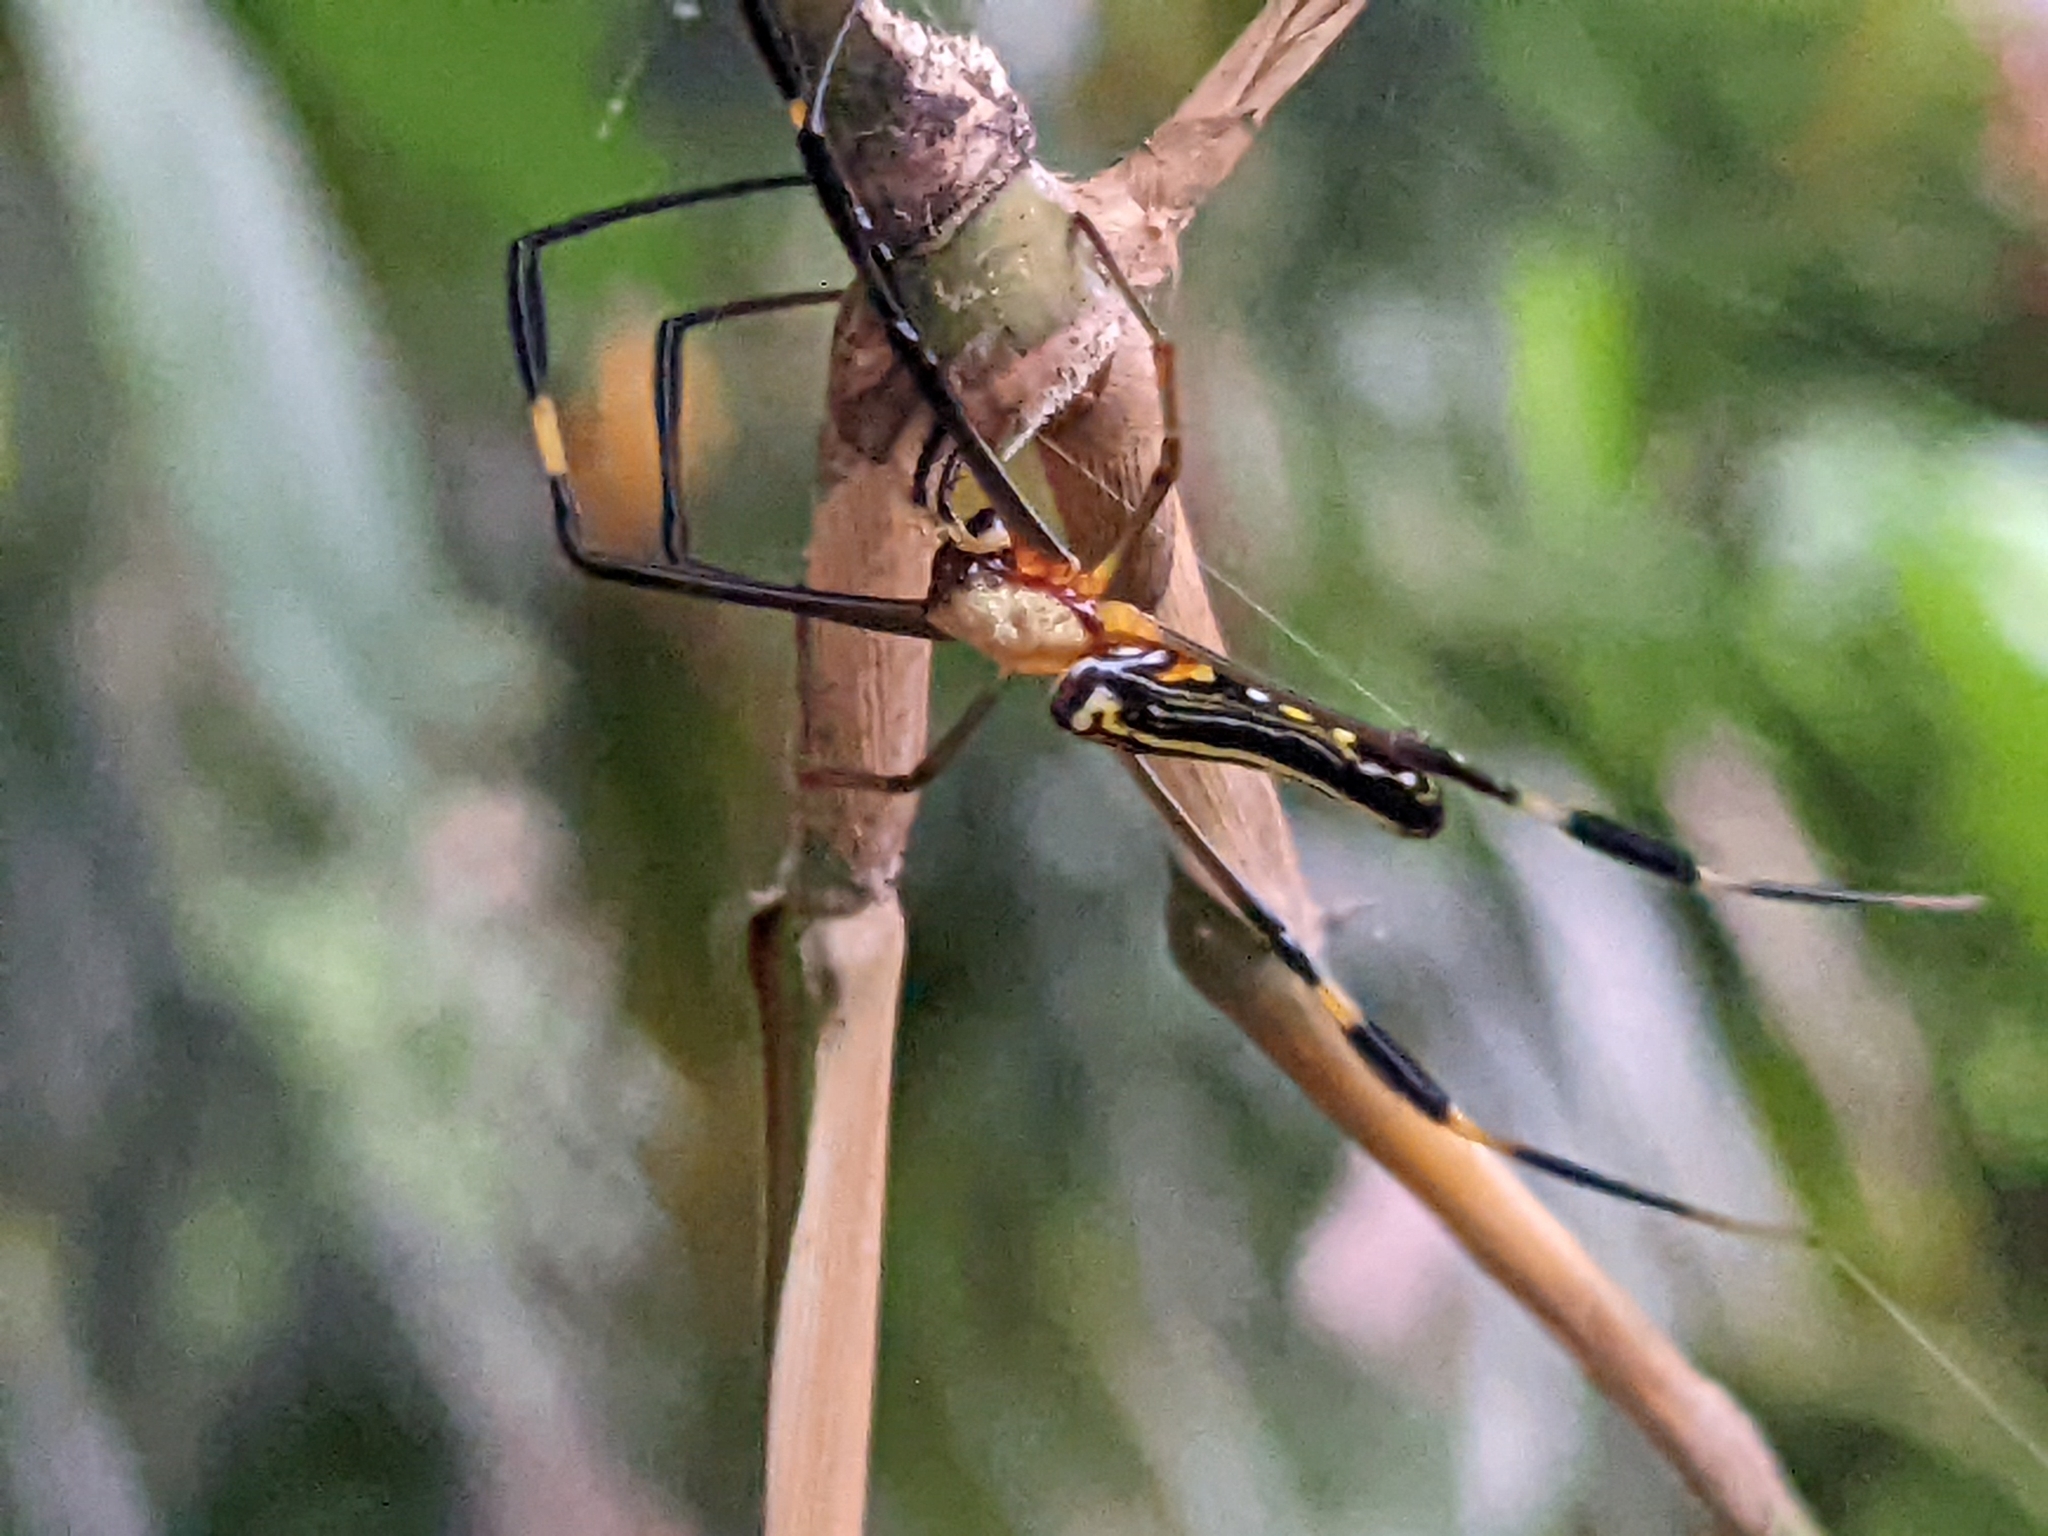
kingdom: Animalia
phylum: Arthropoda
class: Arachnida
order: Araneae
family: Araneidae
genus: Nephila
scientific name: Nephila pilipes
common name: Giant golden orb weaver
